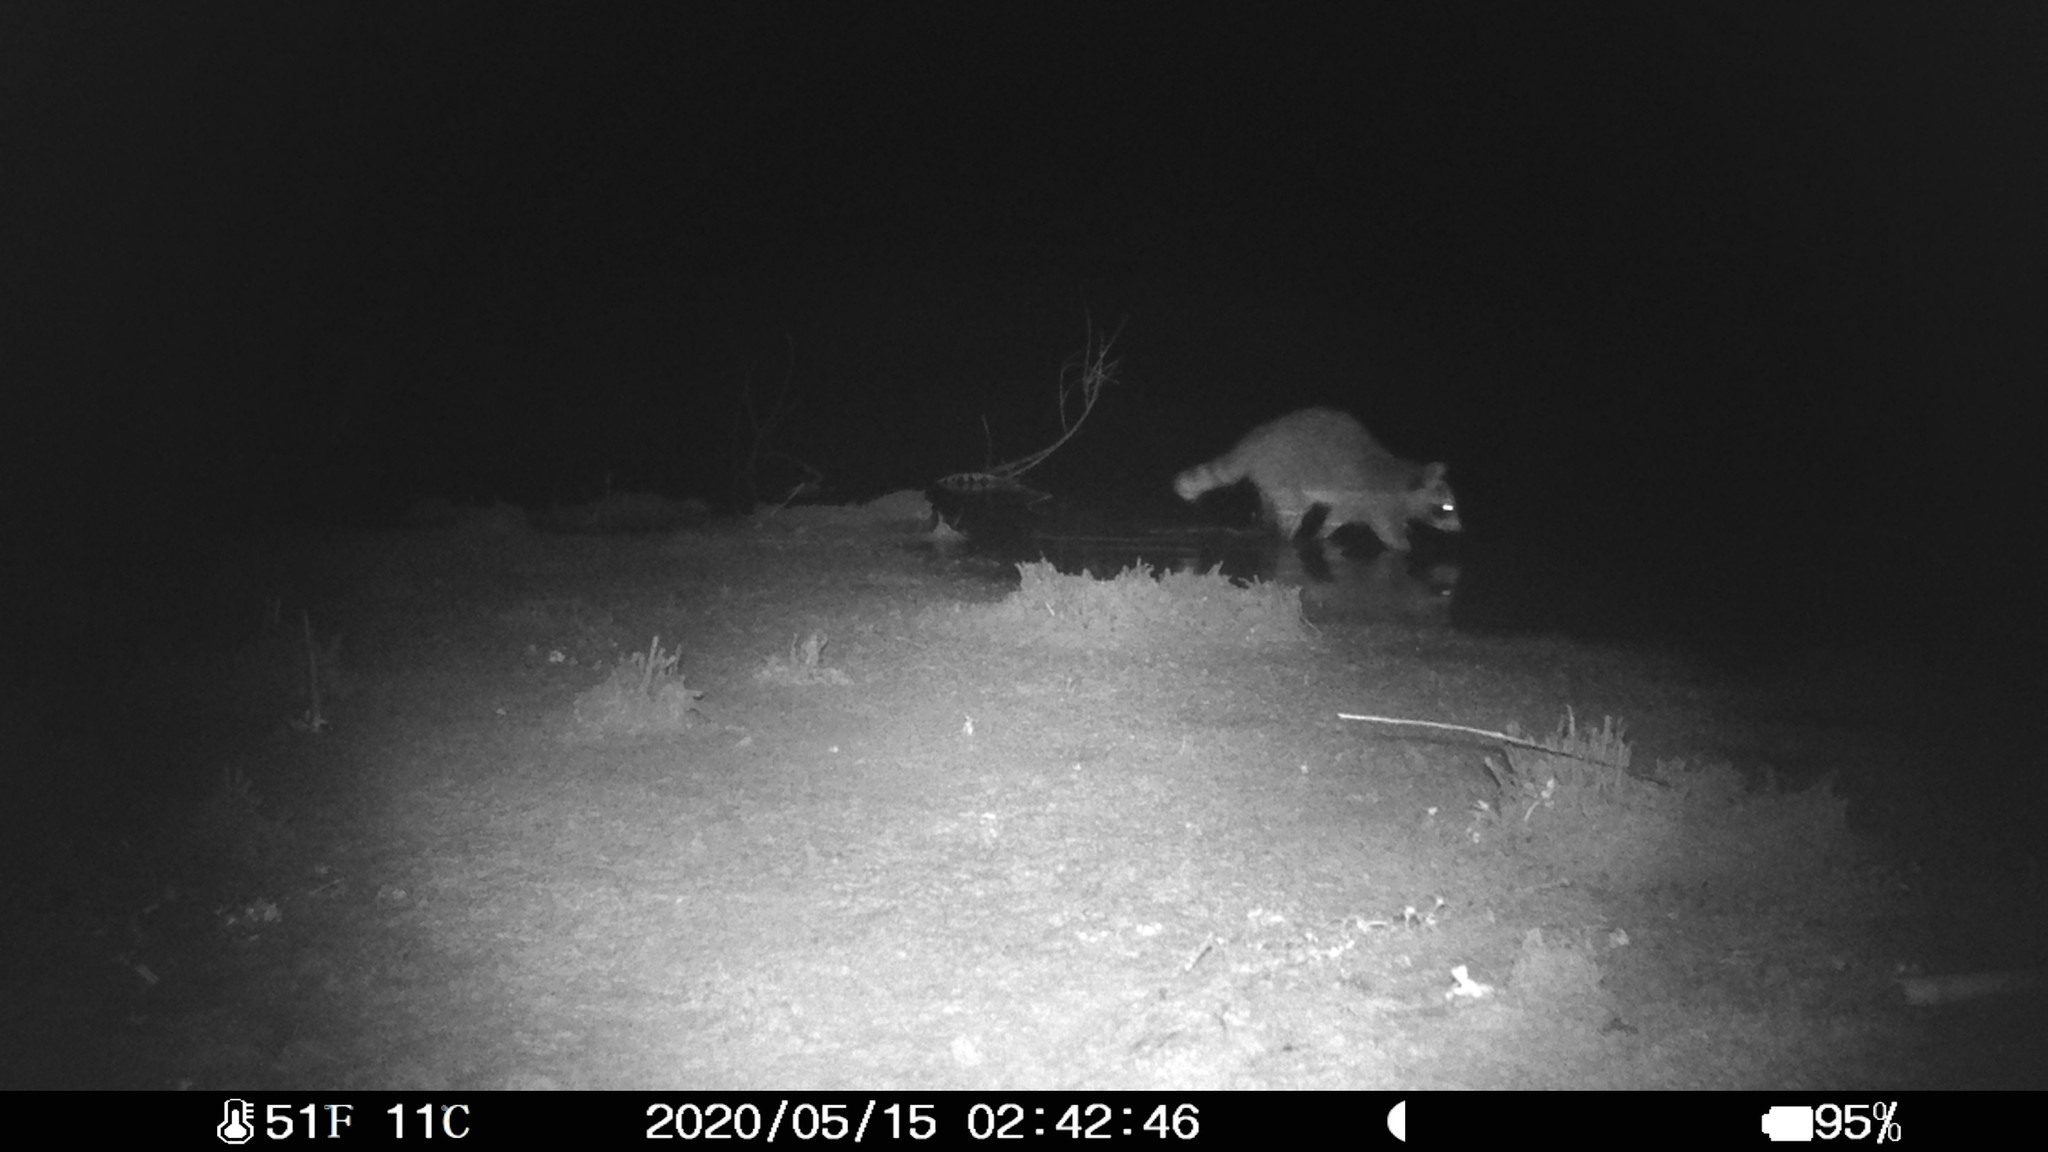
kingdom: Animalia
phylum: Chordata
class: Mammalia
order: Carnivora
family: Procyonidae
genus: Procyon
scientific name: Procyon lotor
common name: Raccoon
